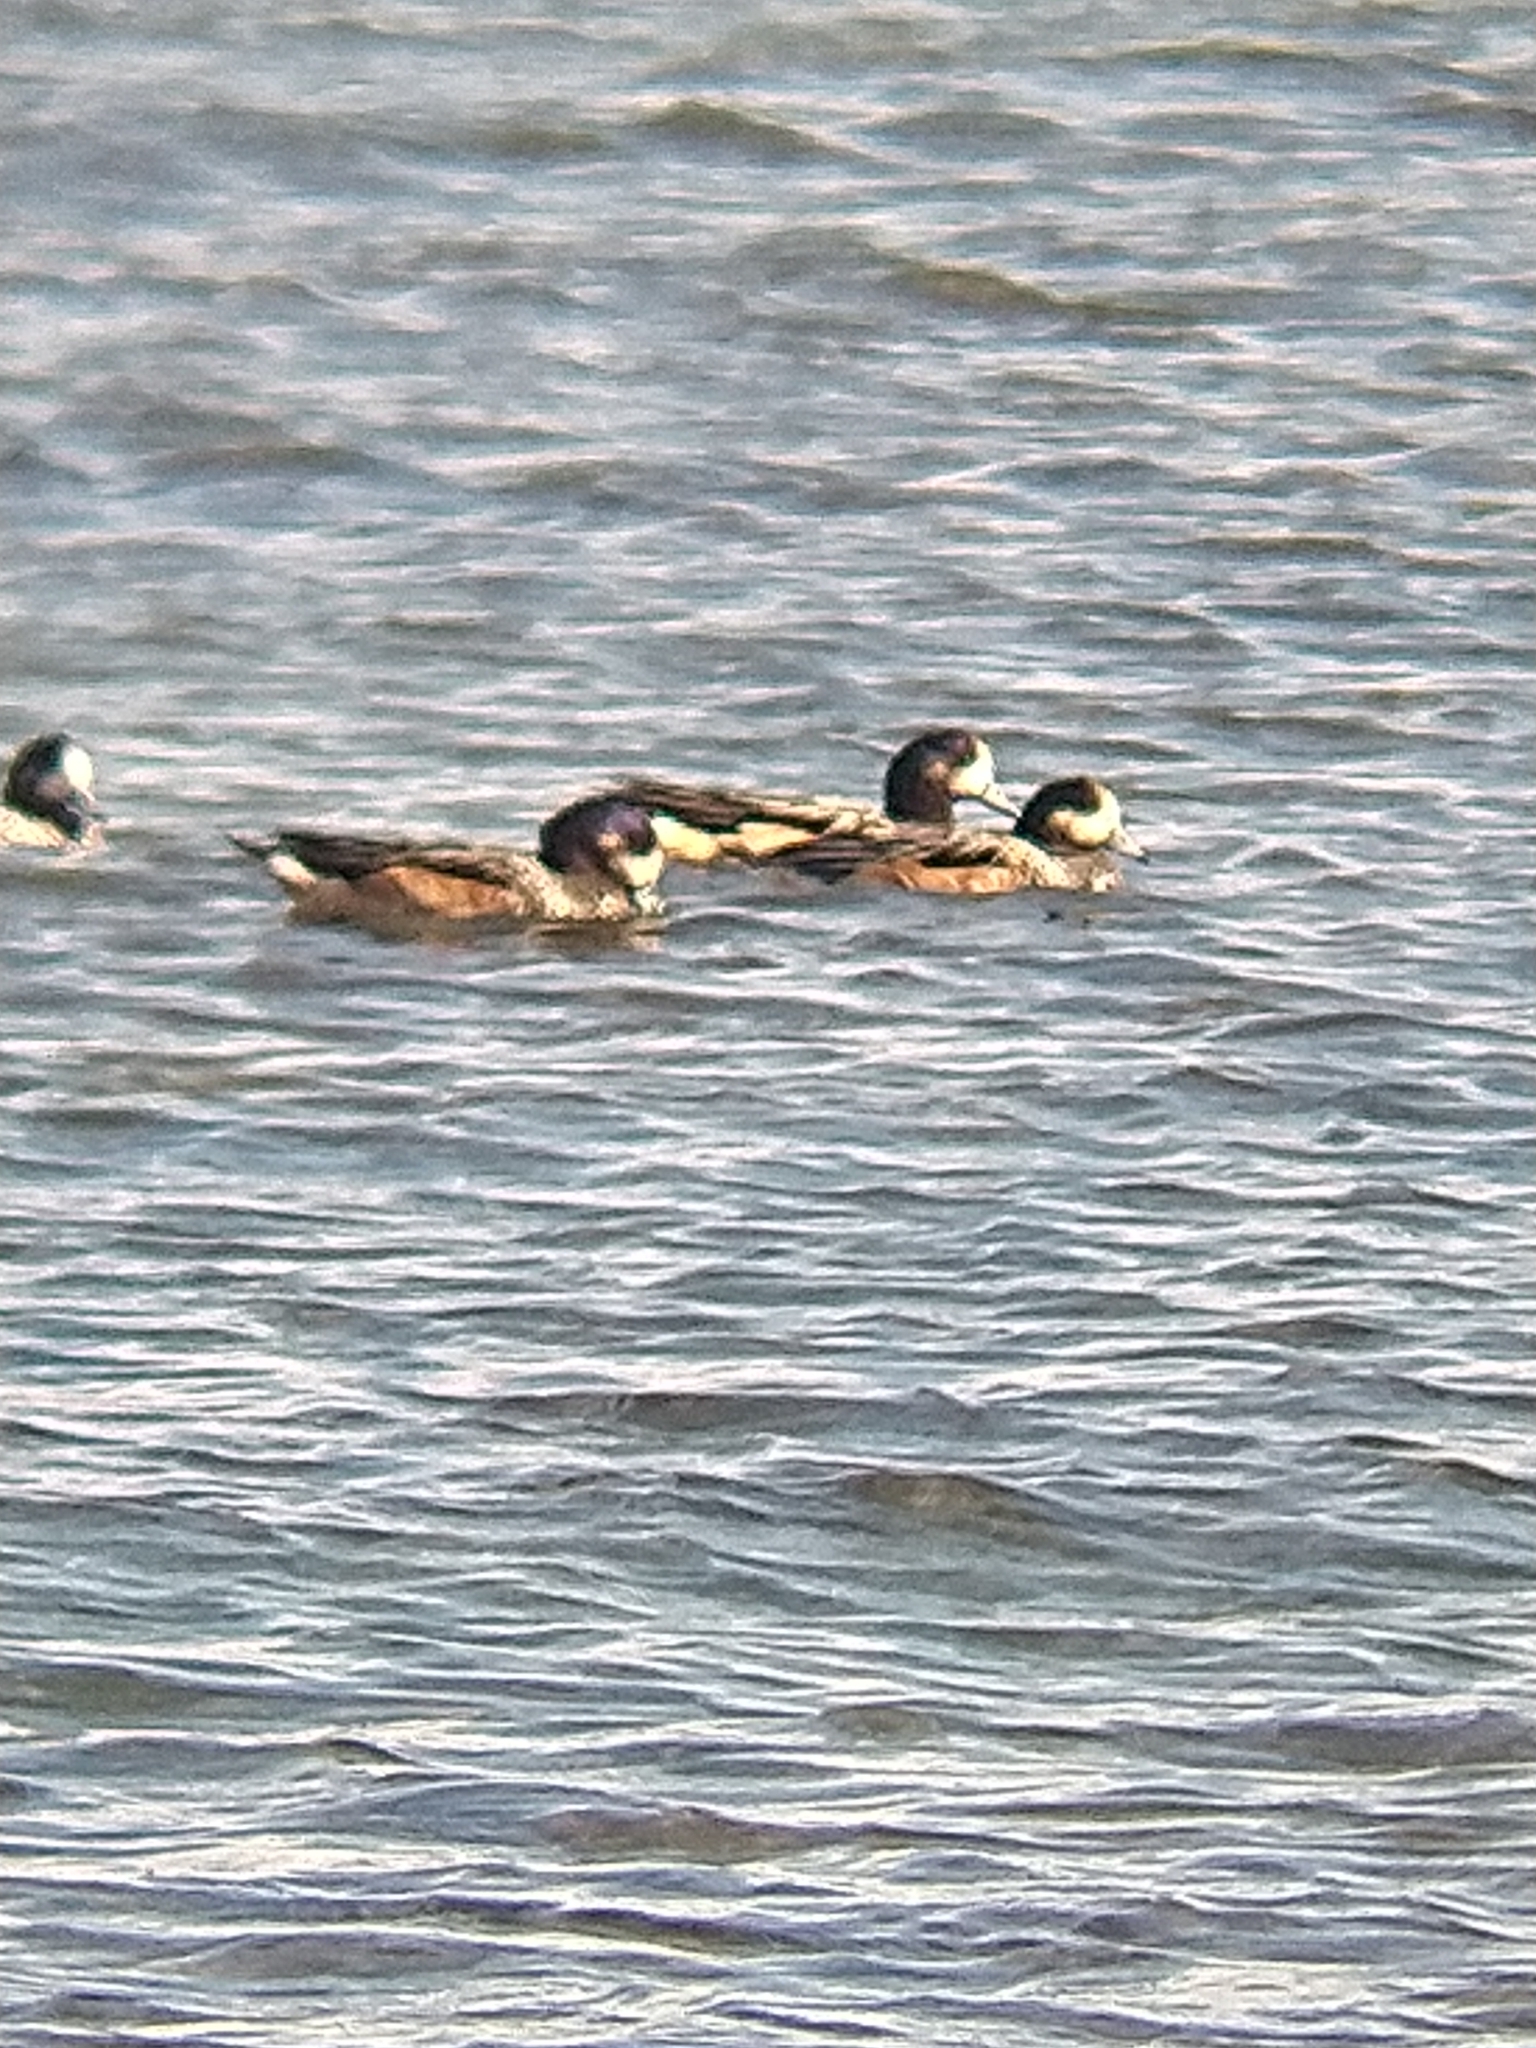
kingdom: Animalia
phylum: Chordata
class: Aves
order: Anseriformes
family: Anatidae
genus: Mareca
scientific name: Mareca sibilatrix
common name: Chiloe wigeon
